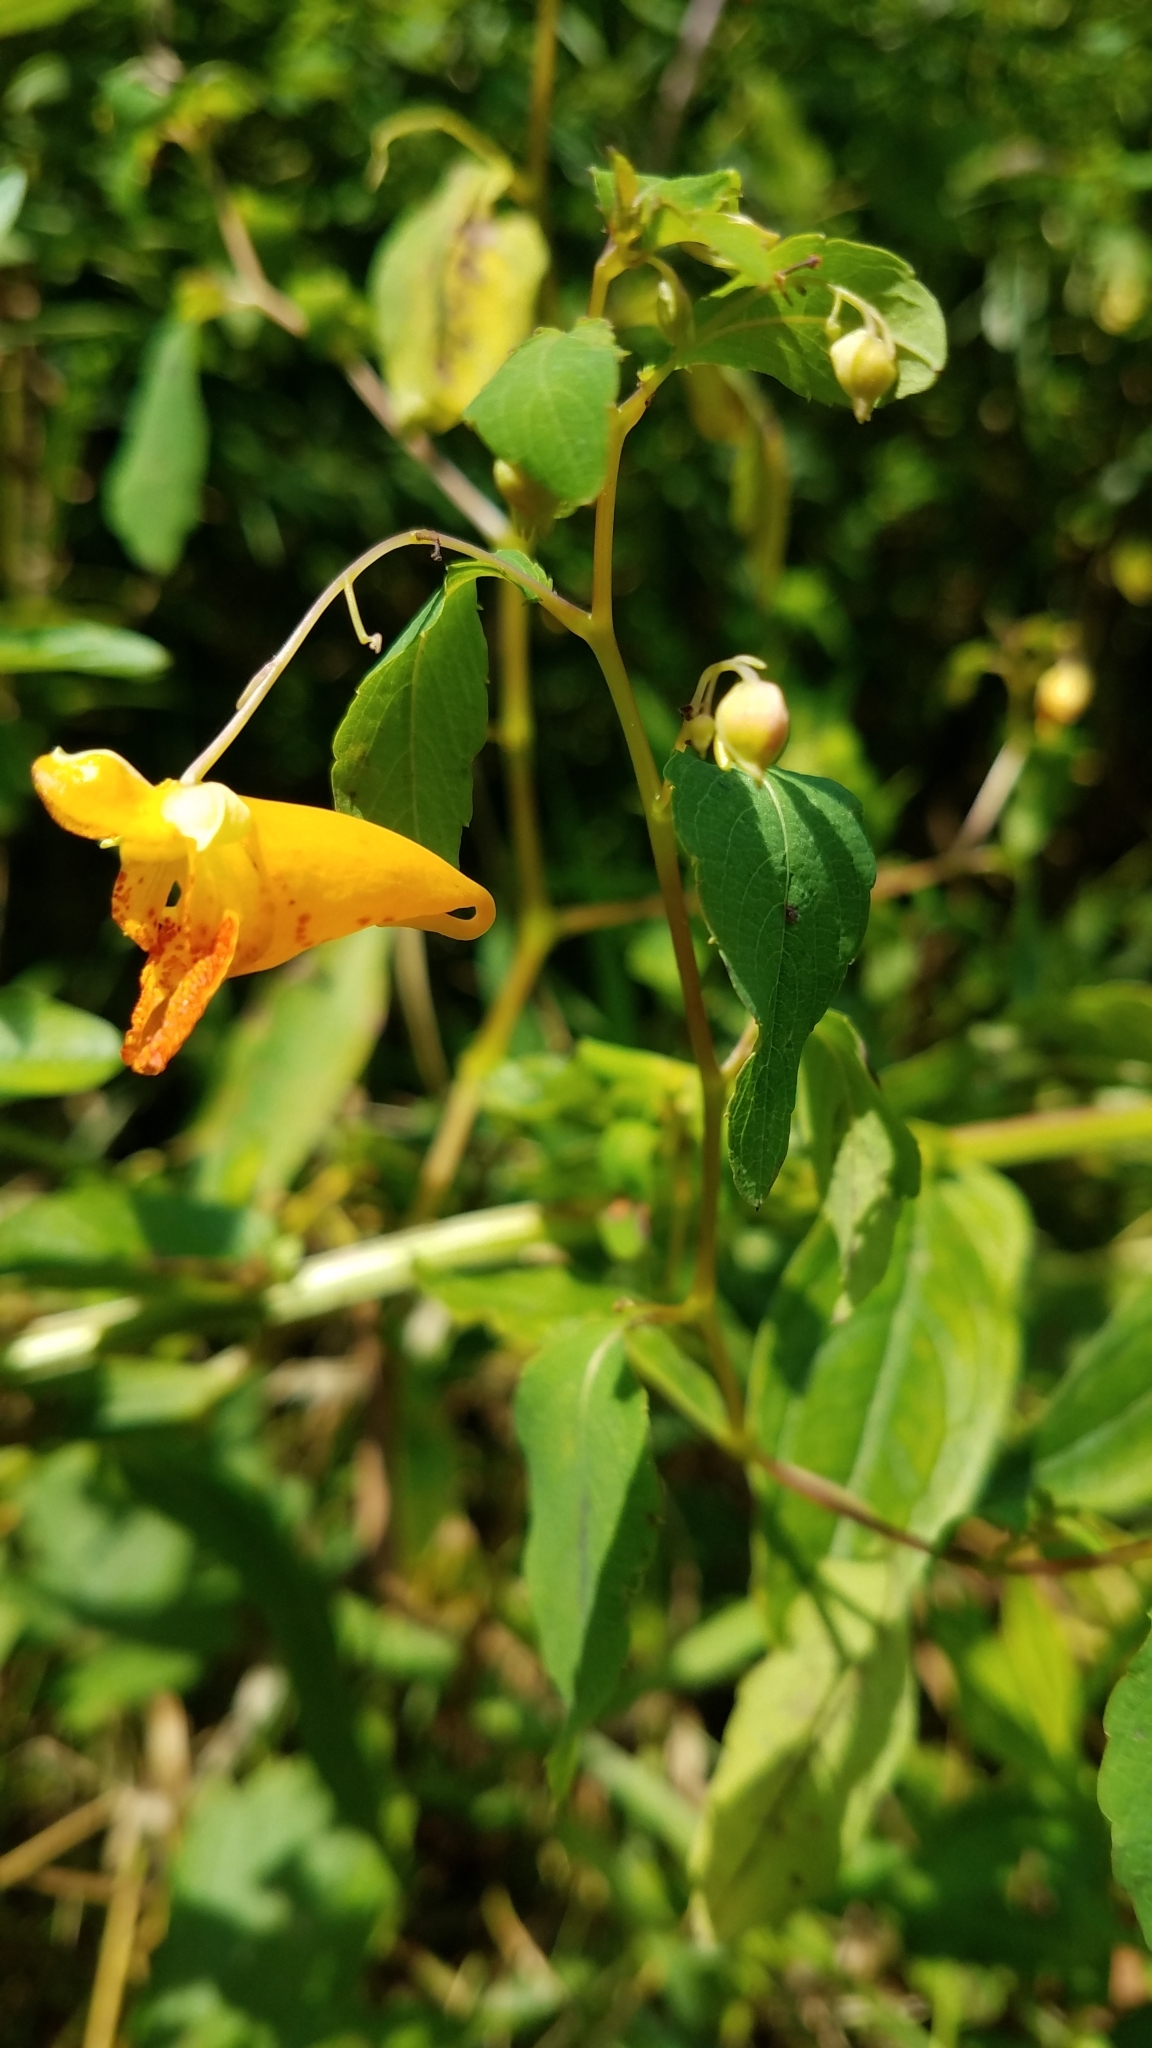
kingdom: Plantae
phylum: Tracheophyta
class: Magnoliopsida
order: Ericales
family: Balsaminaceae
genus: Impatiens
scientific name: Impatiens capensis
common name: Orange balsam
